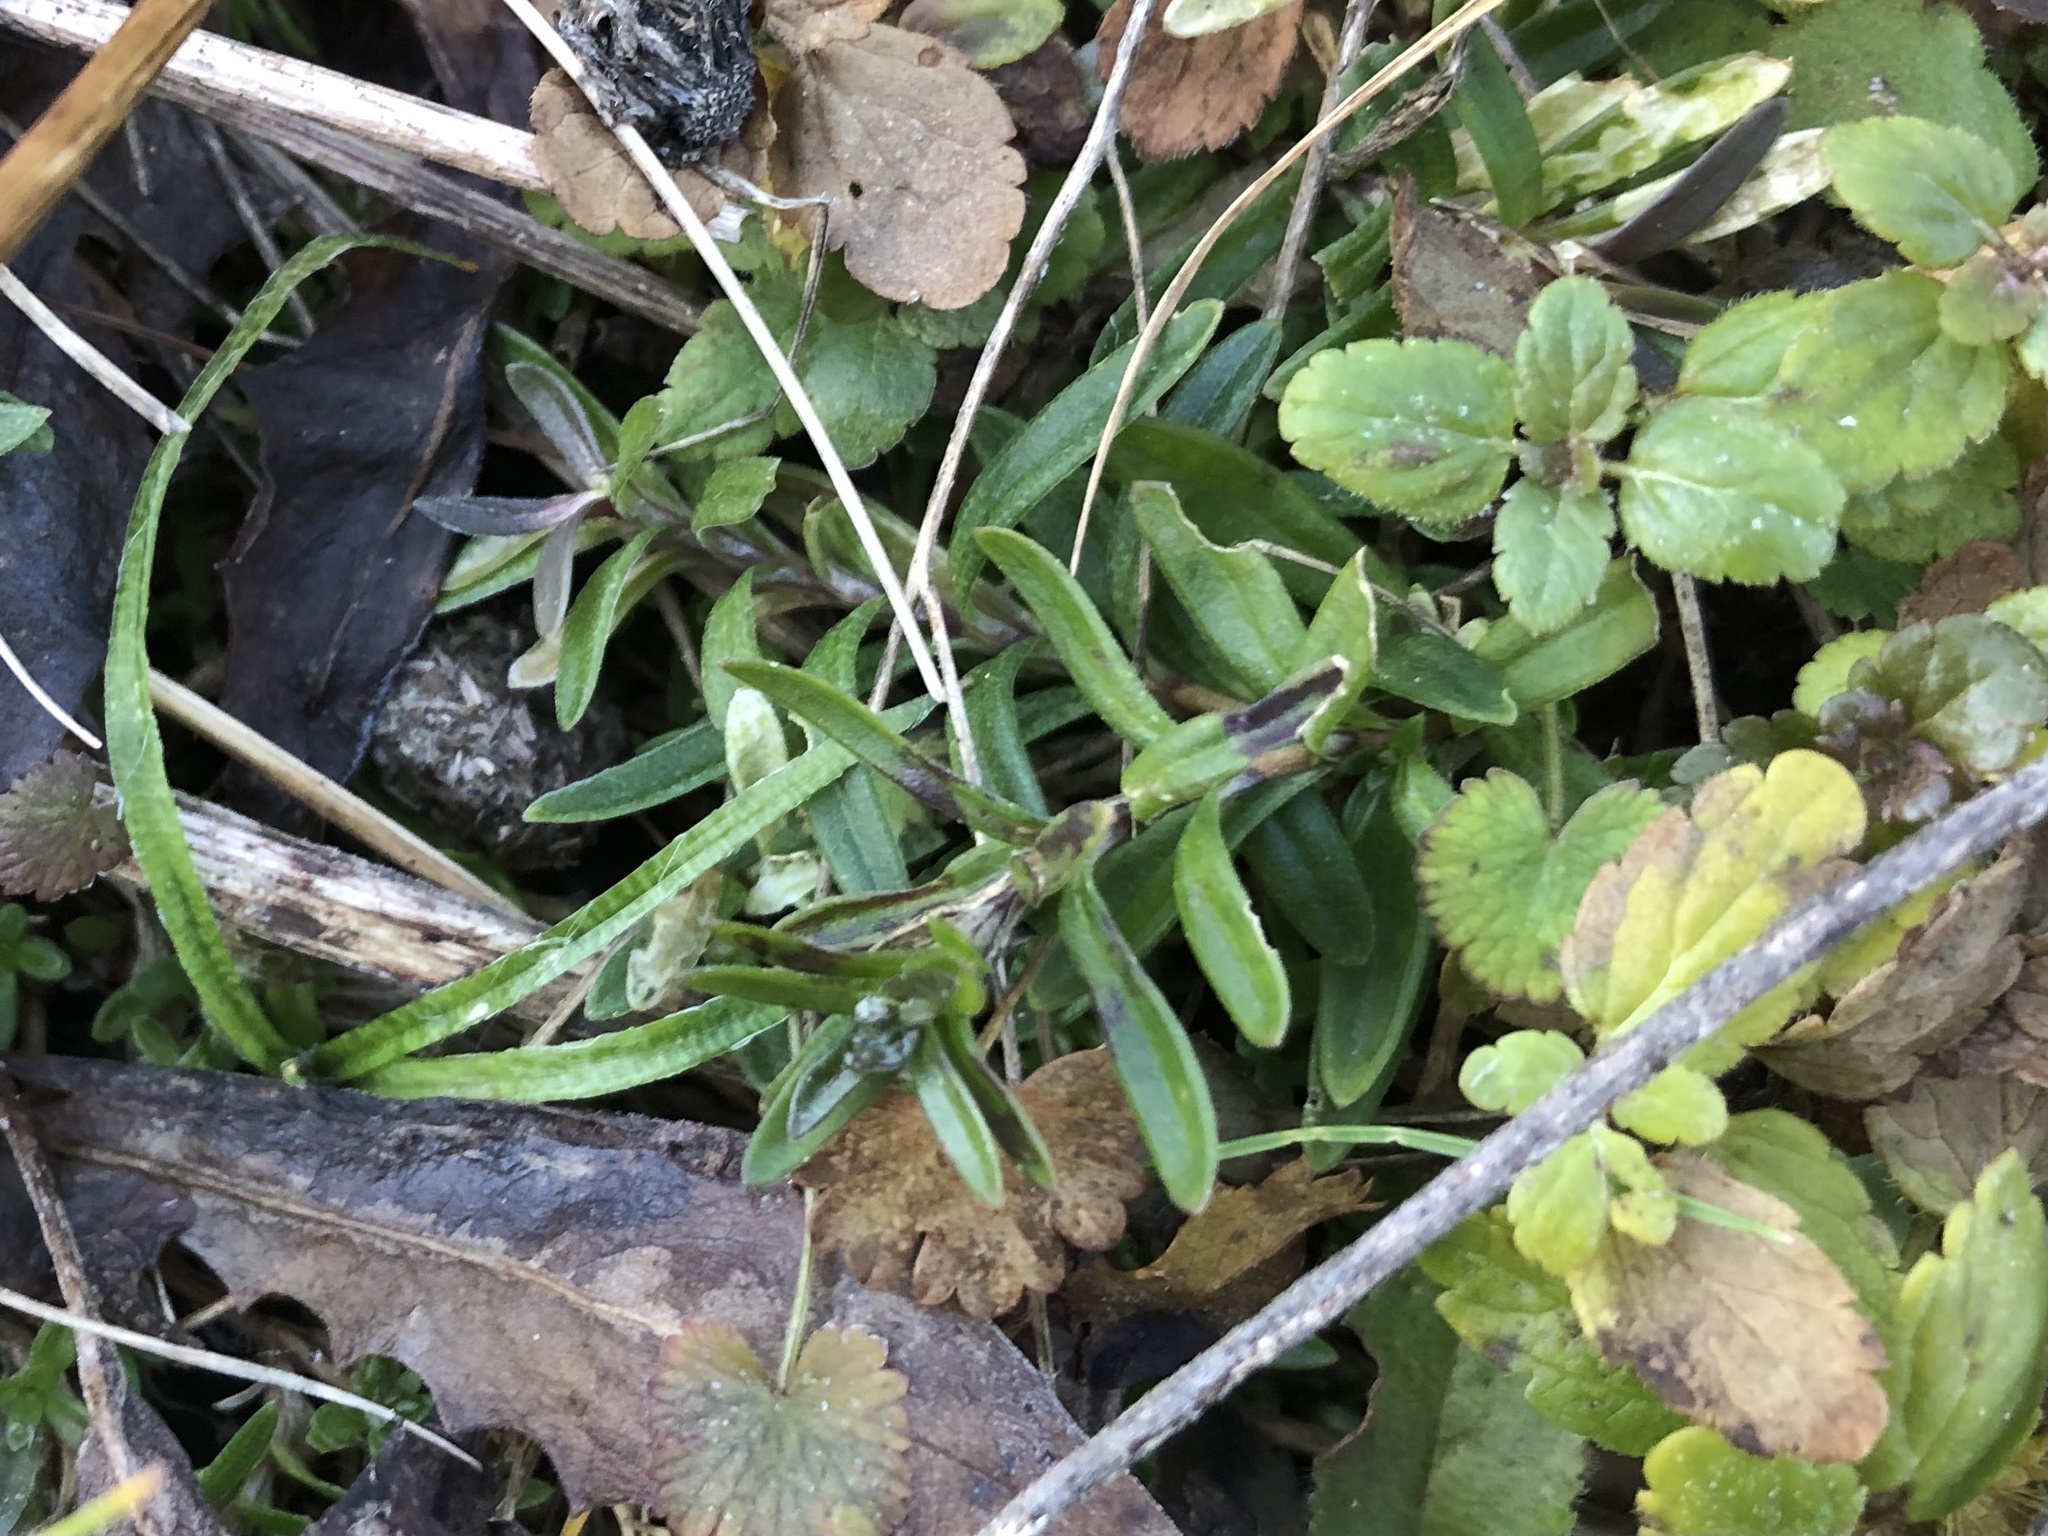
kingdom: Plantae
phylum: Tracheophyta
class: Magnoliopsida
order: Caryophyllales
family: Caryophyllaceae
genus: Cerastium
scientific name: Cerastium arvense
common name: Field mouse-ear
